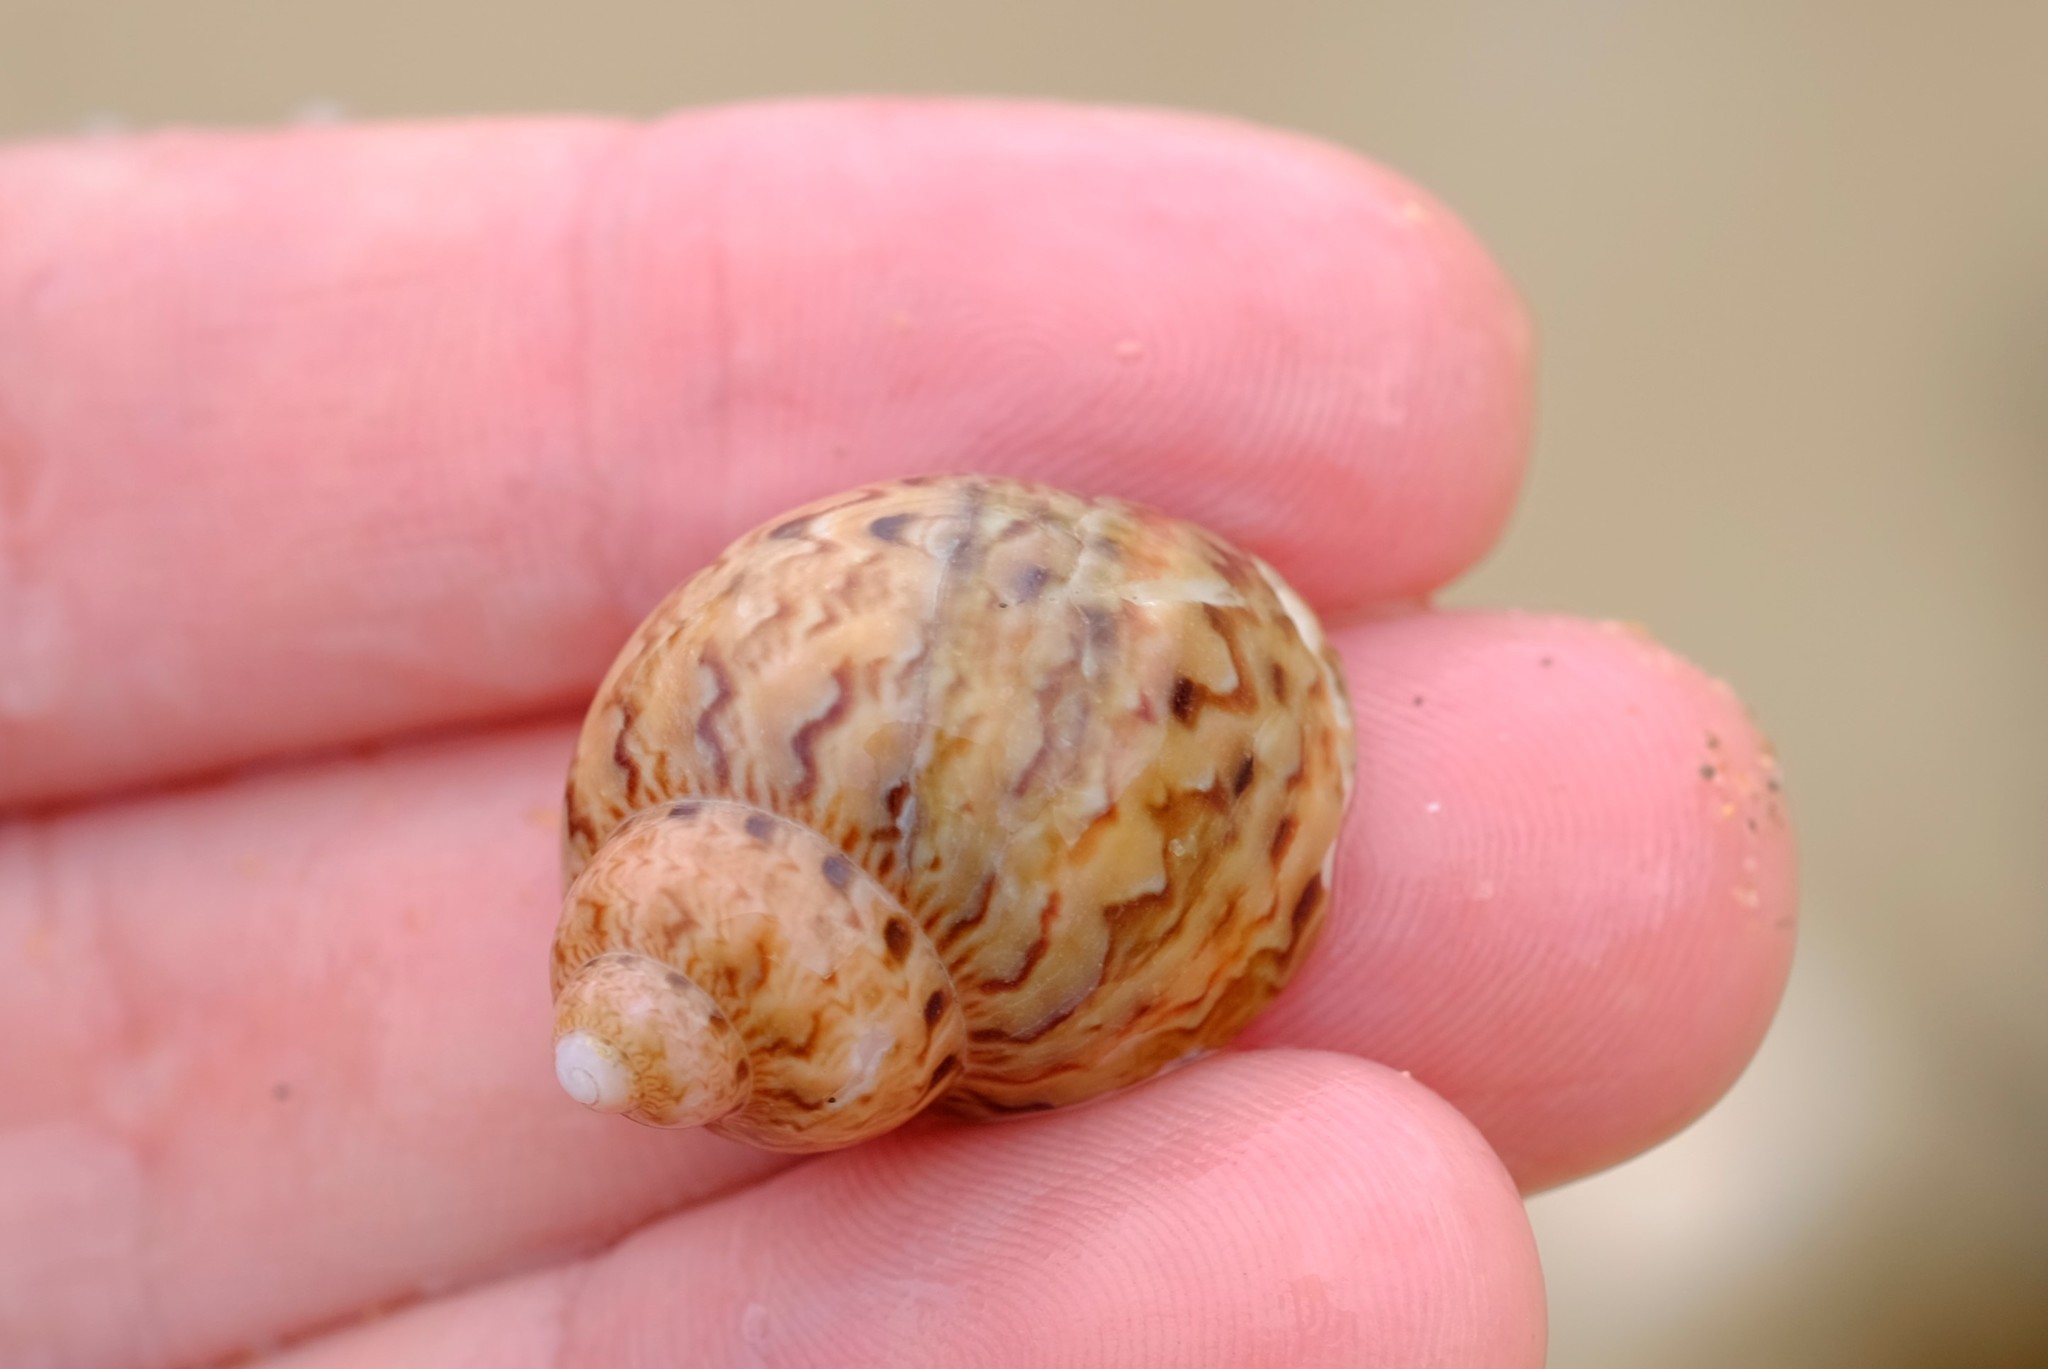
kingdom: Animalia
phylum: Mollusca
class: Gastropoda
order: Trochida
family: Phasianellidae
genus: Phasianella
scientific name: Phasianella ventricosa
